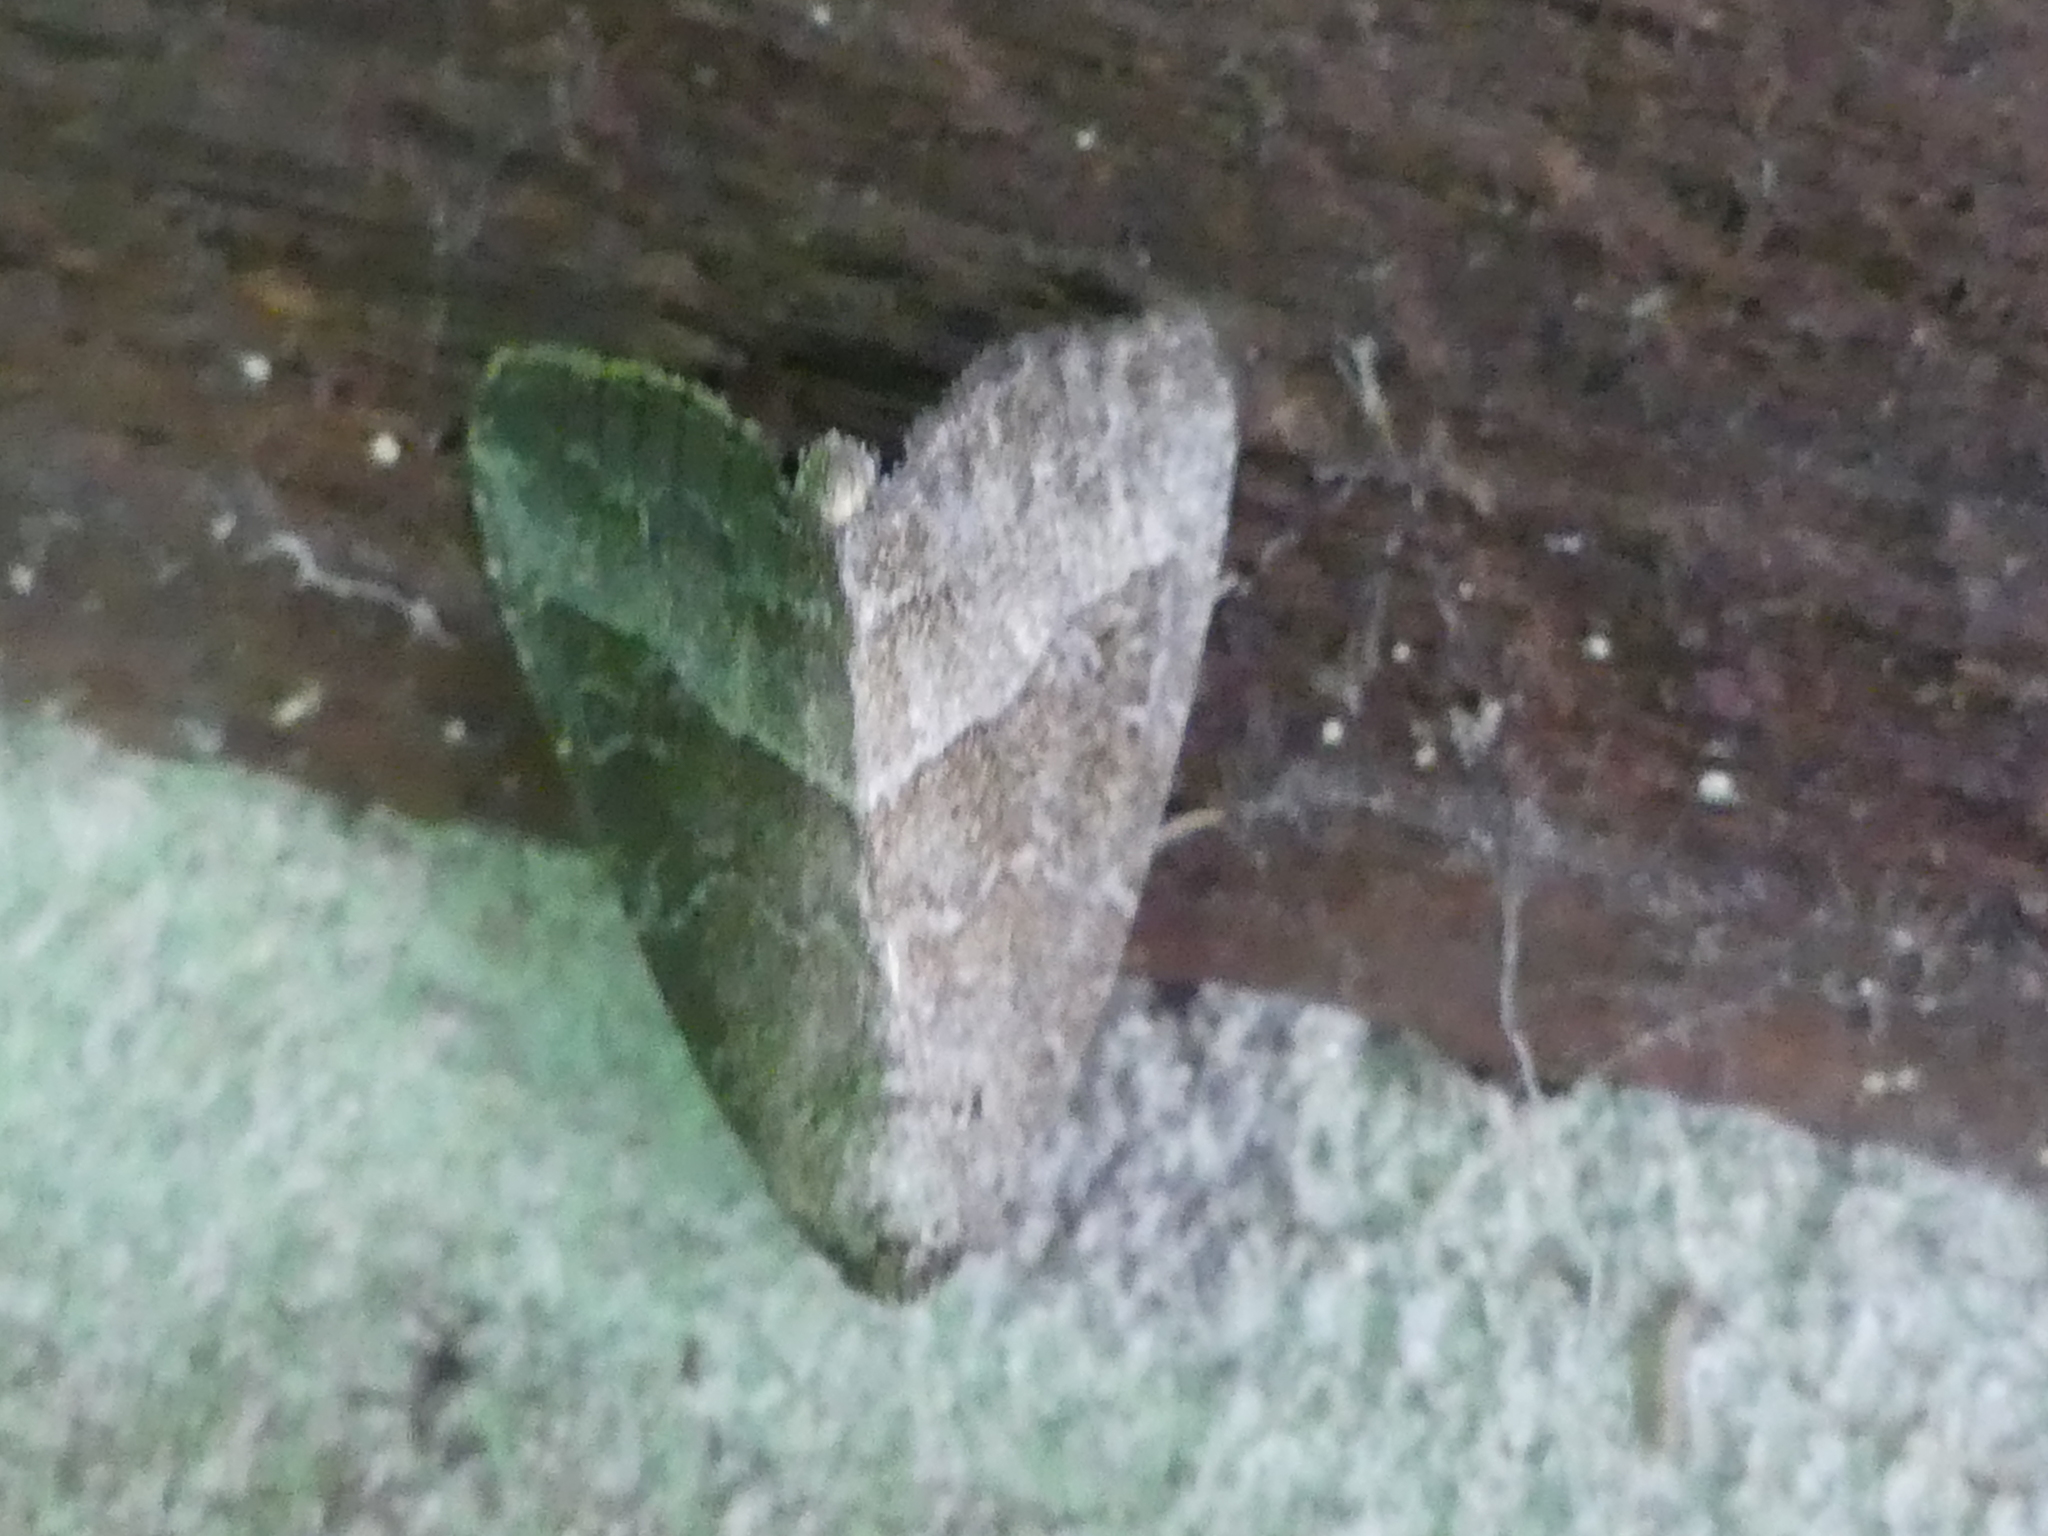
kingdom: Animalia
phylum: Arthropoda
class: Insecta
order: Lepidoptera
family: Noctuidae
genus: Ogdoconta
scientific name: Ogdoconta cinereola
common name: Common pinkband
